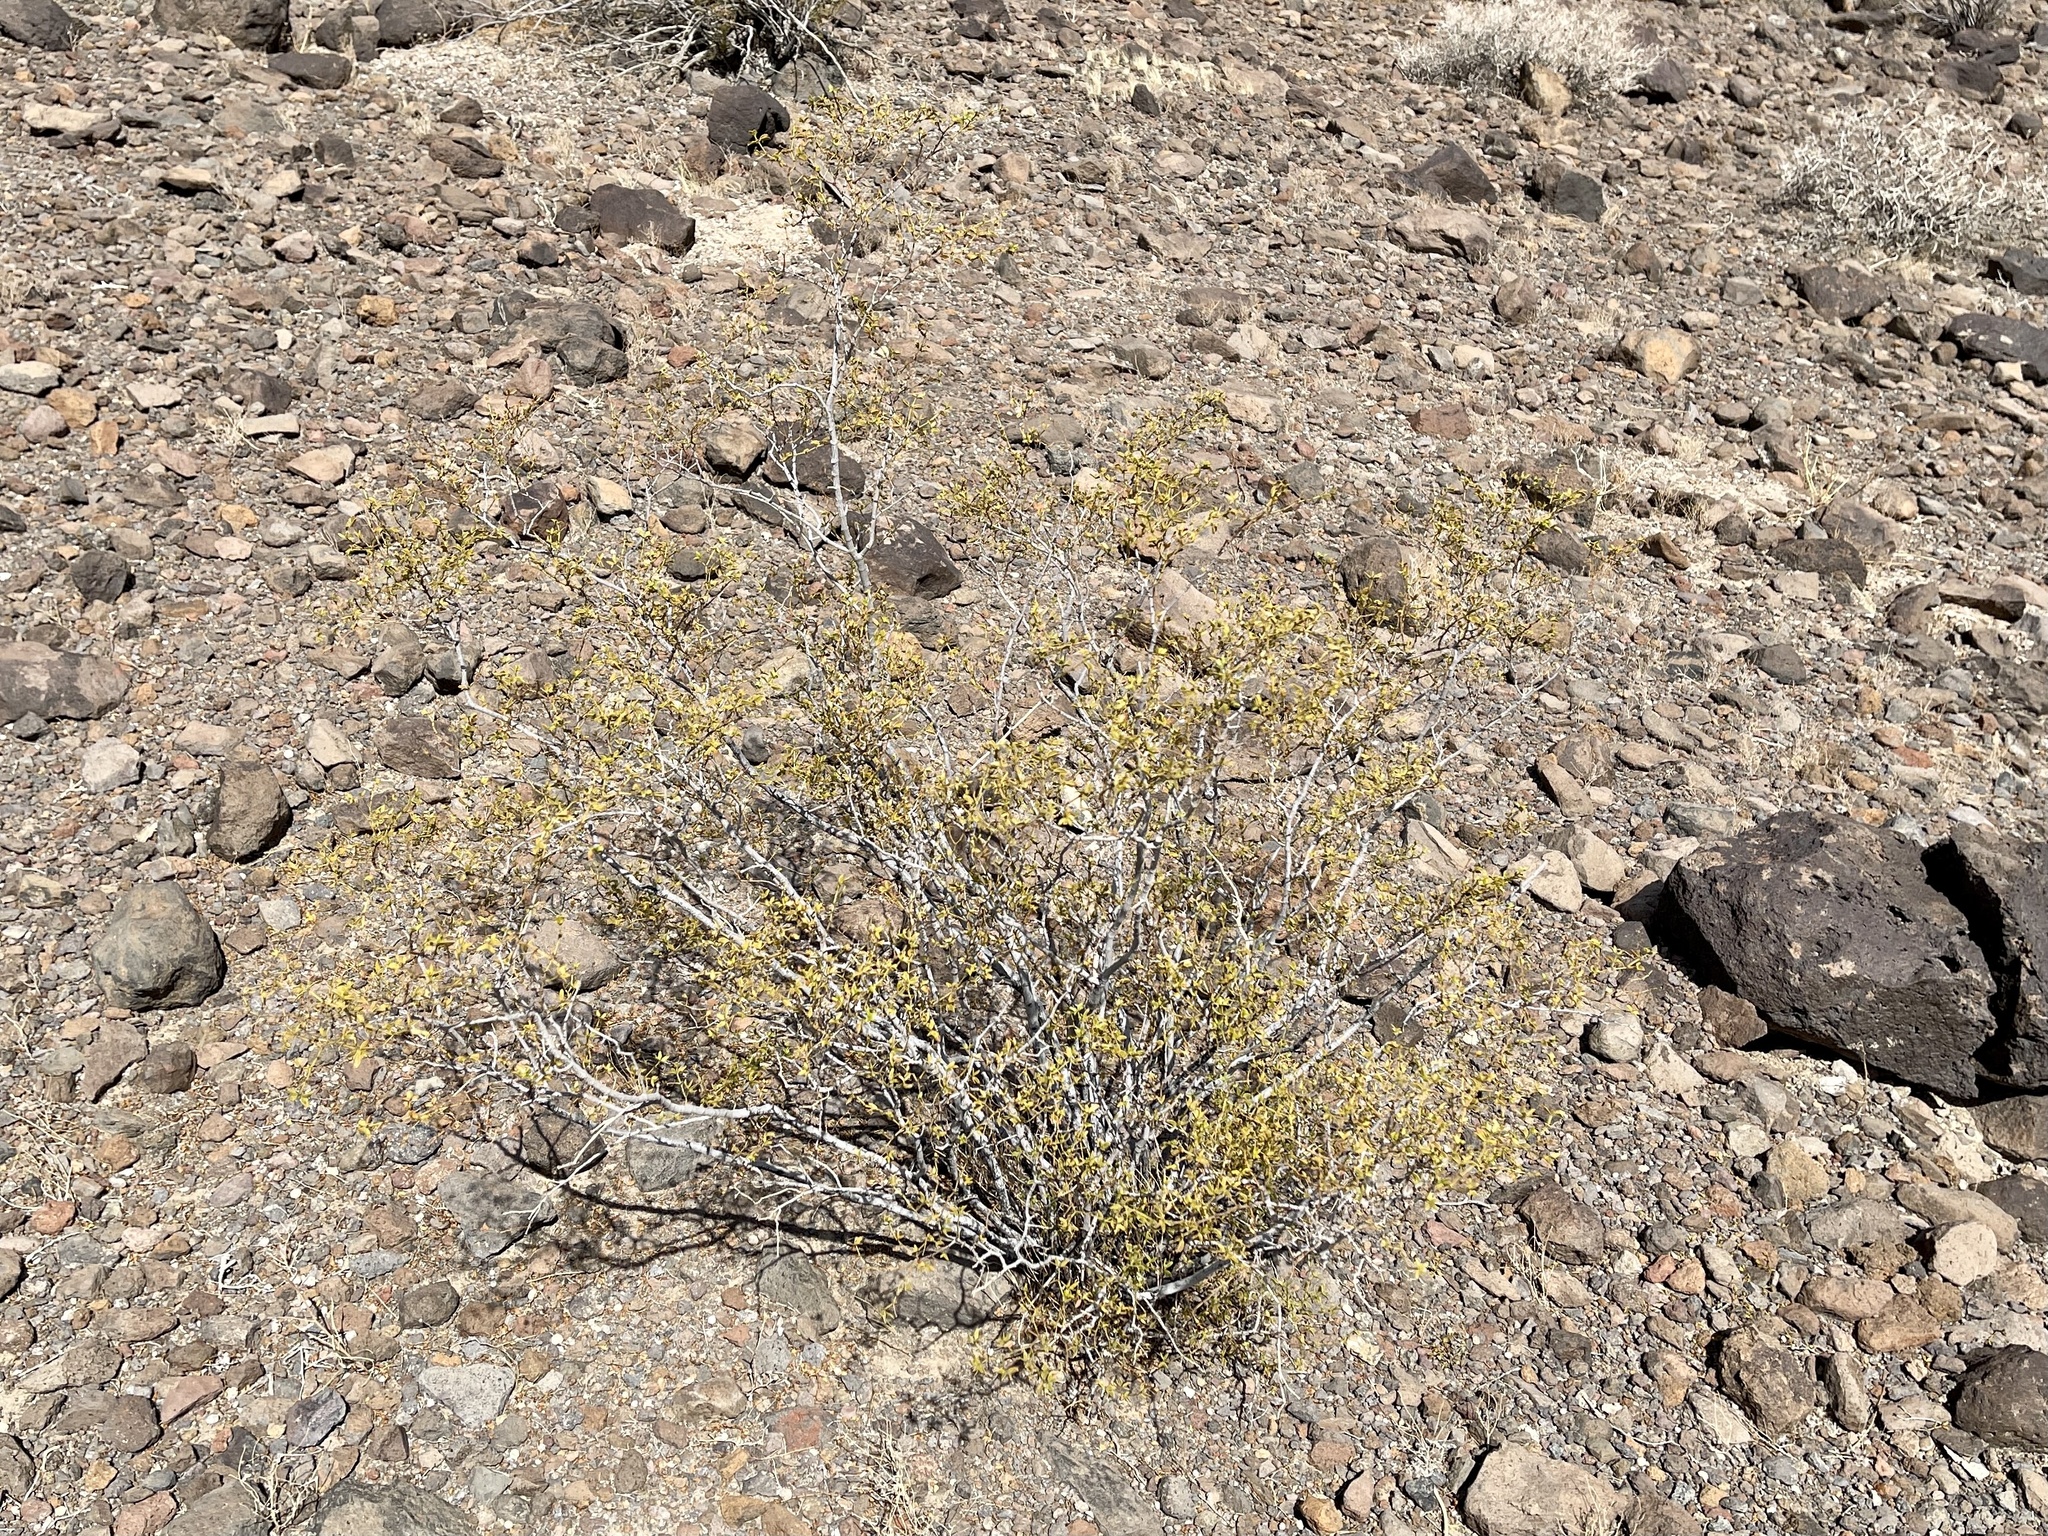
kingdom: Plantae
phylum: Tracheophyta
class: Magnoliopsida
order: Zygophyllales
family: Zygophyllaceae
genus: Larrea
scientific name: Larrea tridentata
